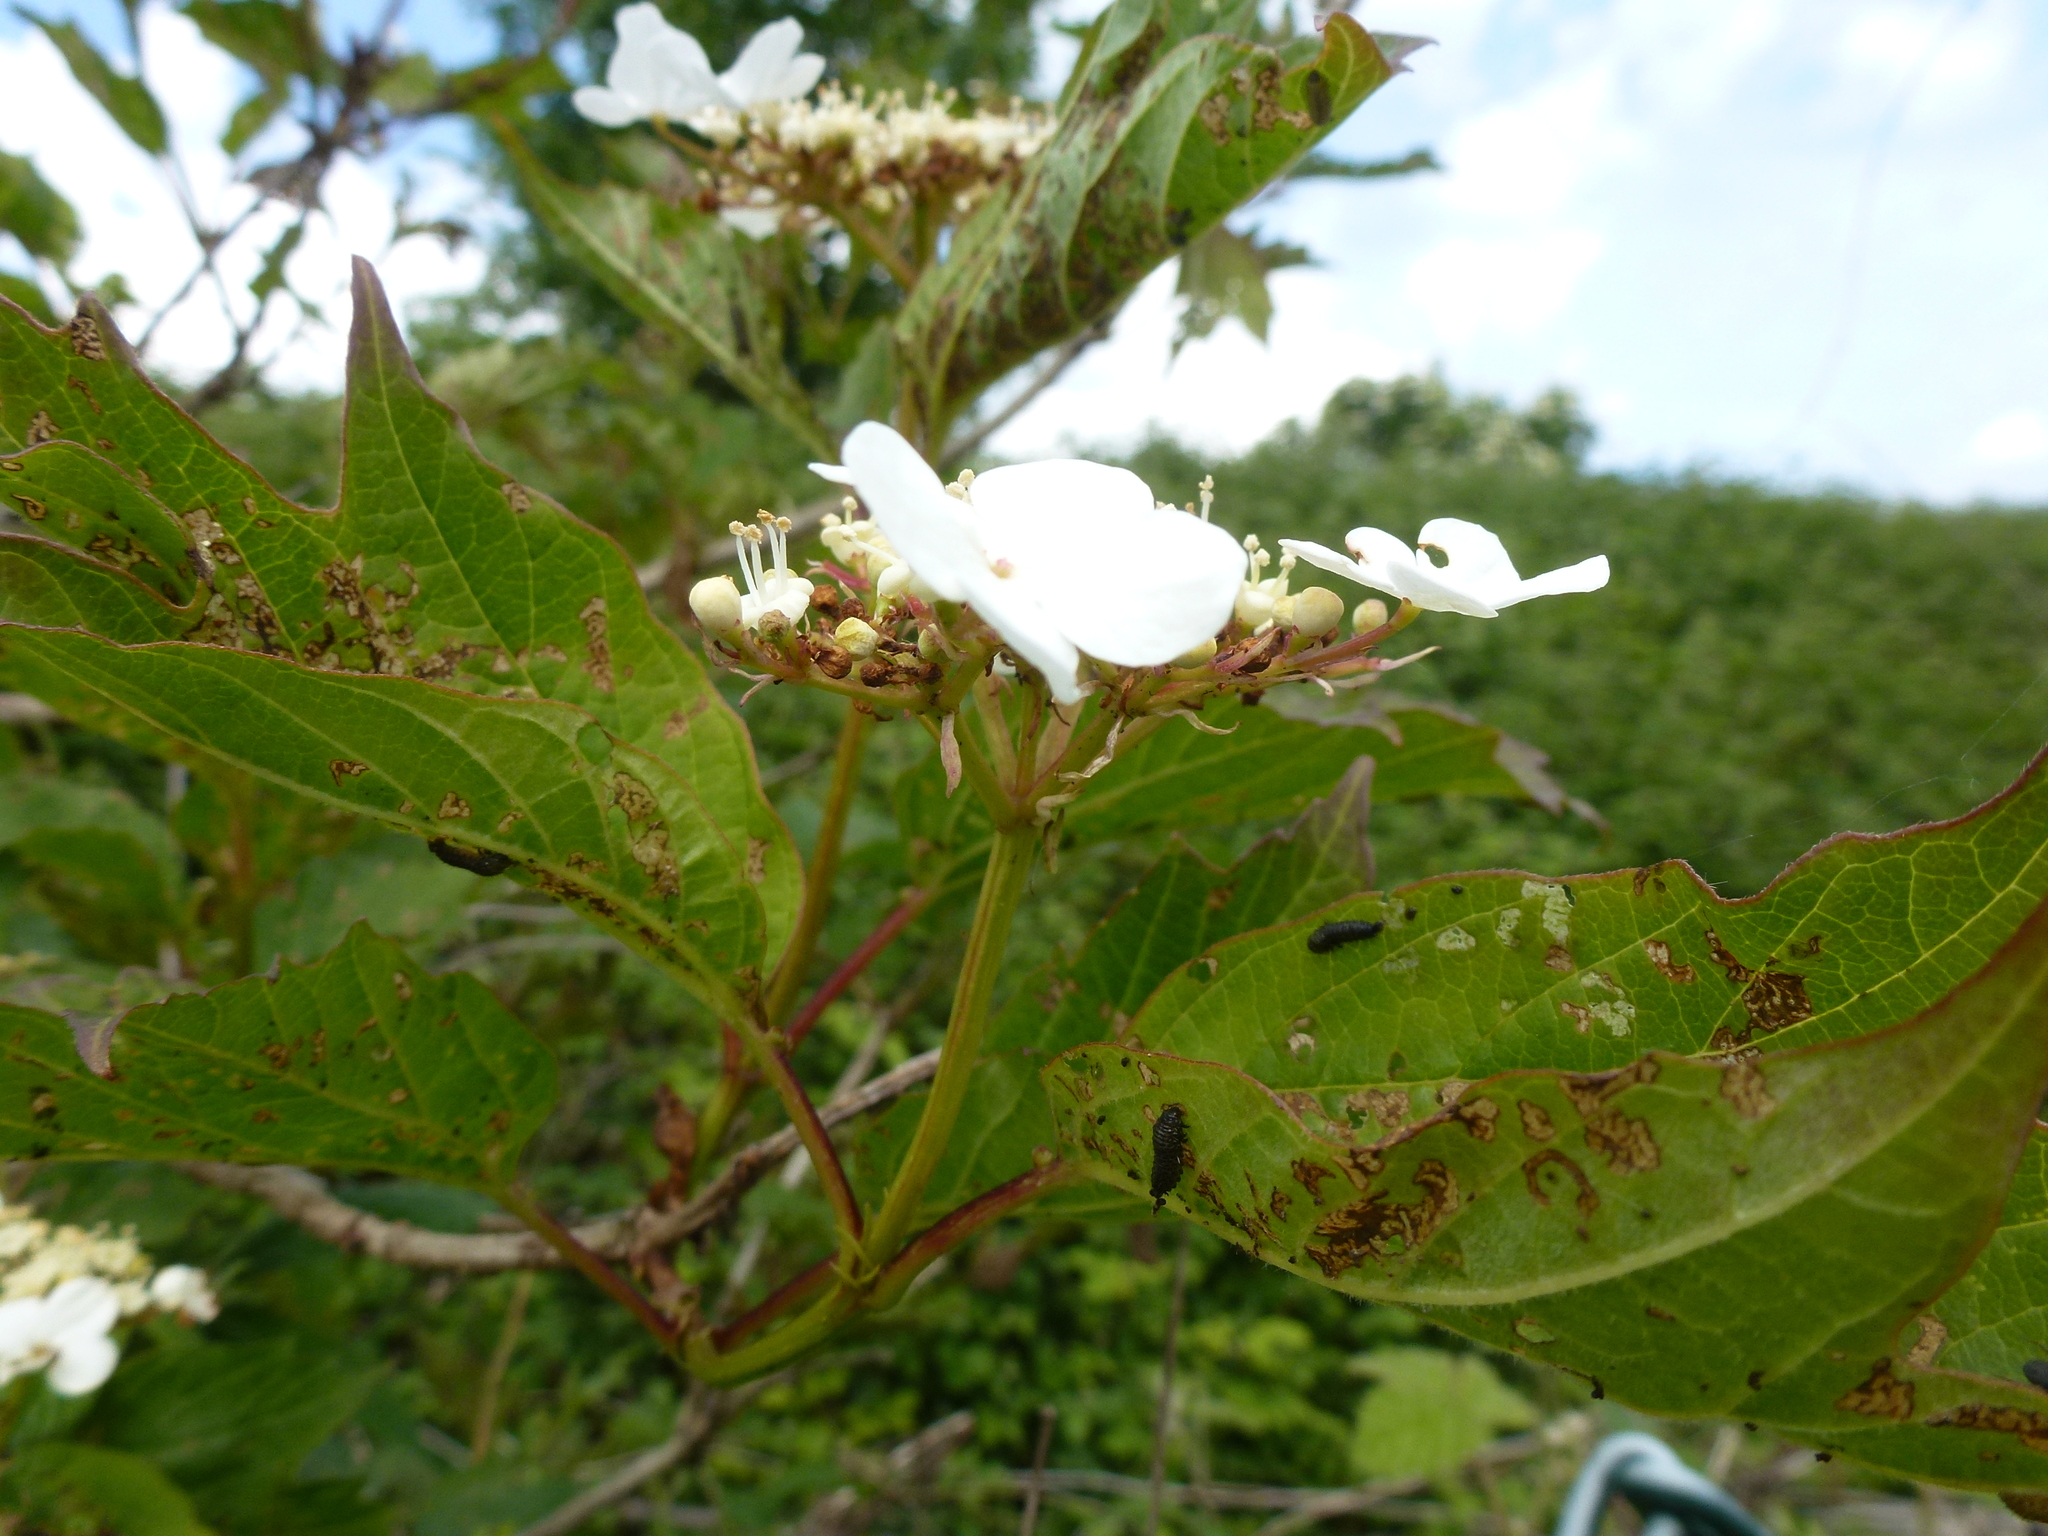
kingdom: Plantae
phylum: Tracheophyta
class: Magnoliopsida
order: Dipsacales
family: Viburnaceae
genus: Viburnum
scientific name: Viburnum opulus
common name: Guelder-rose
